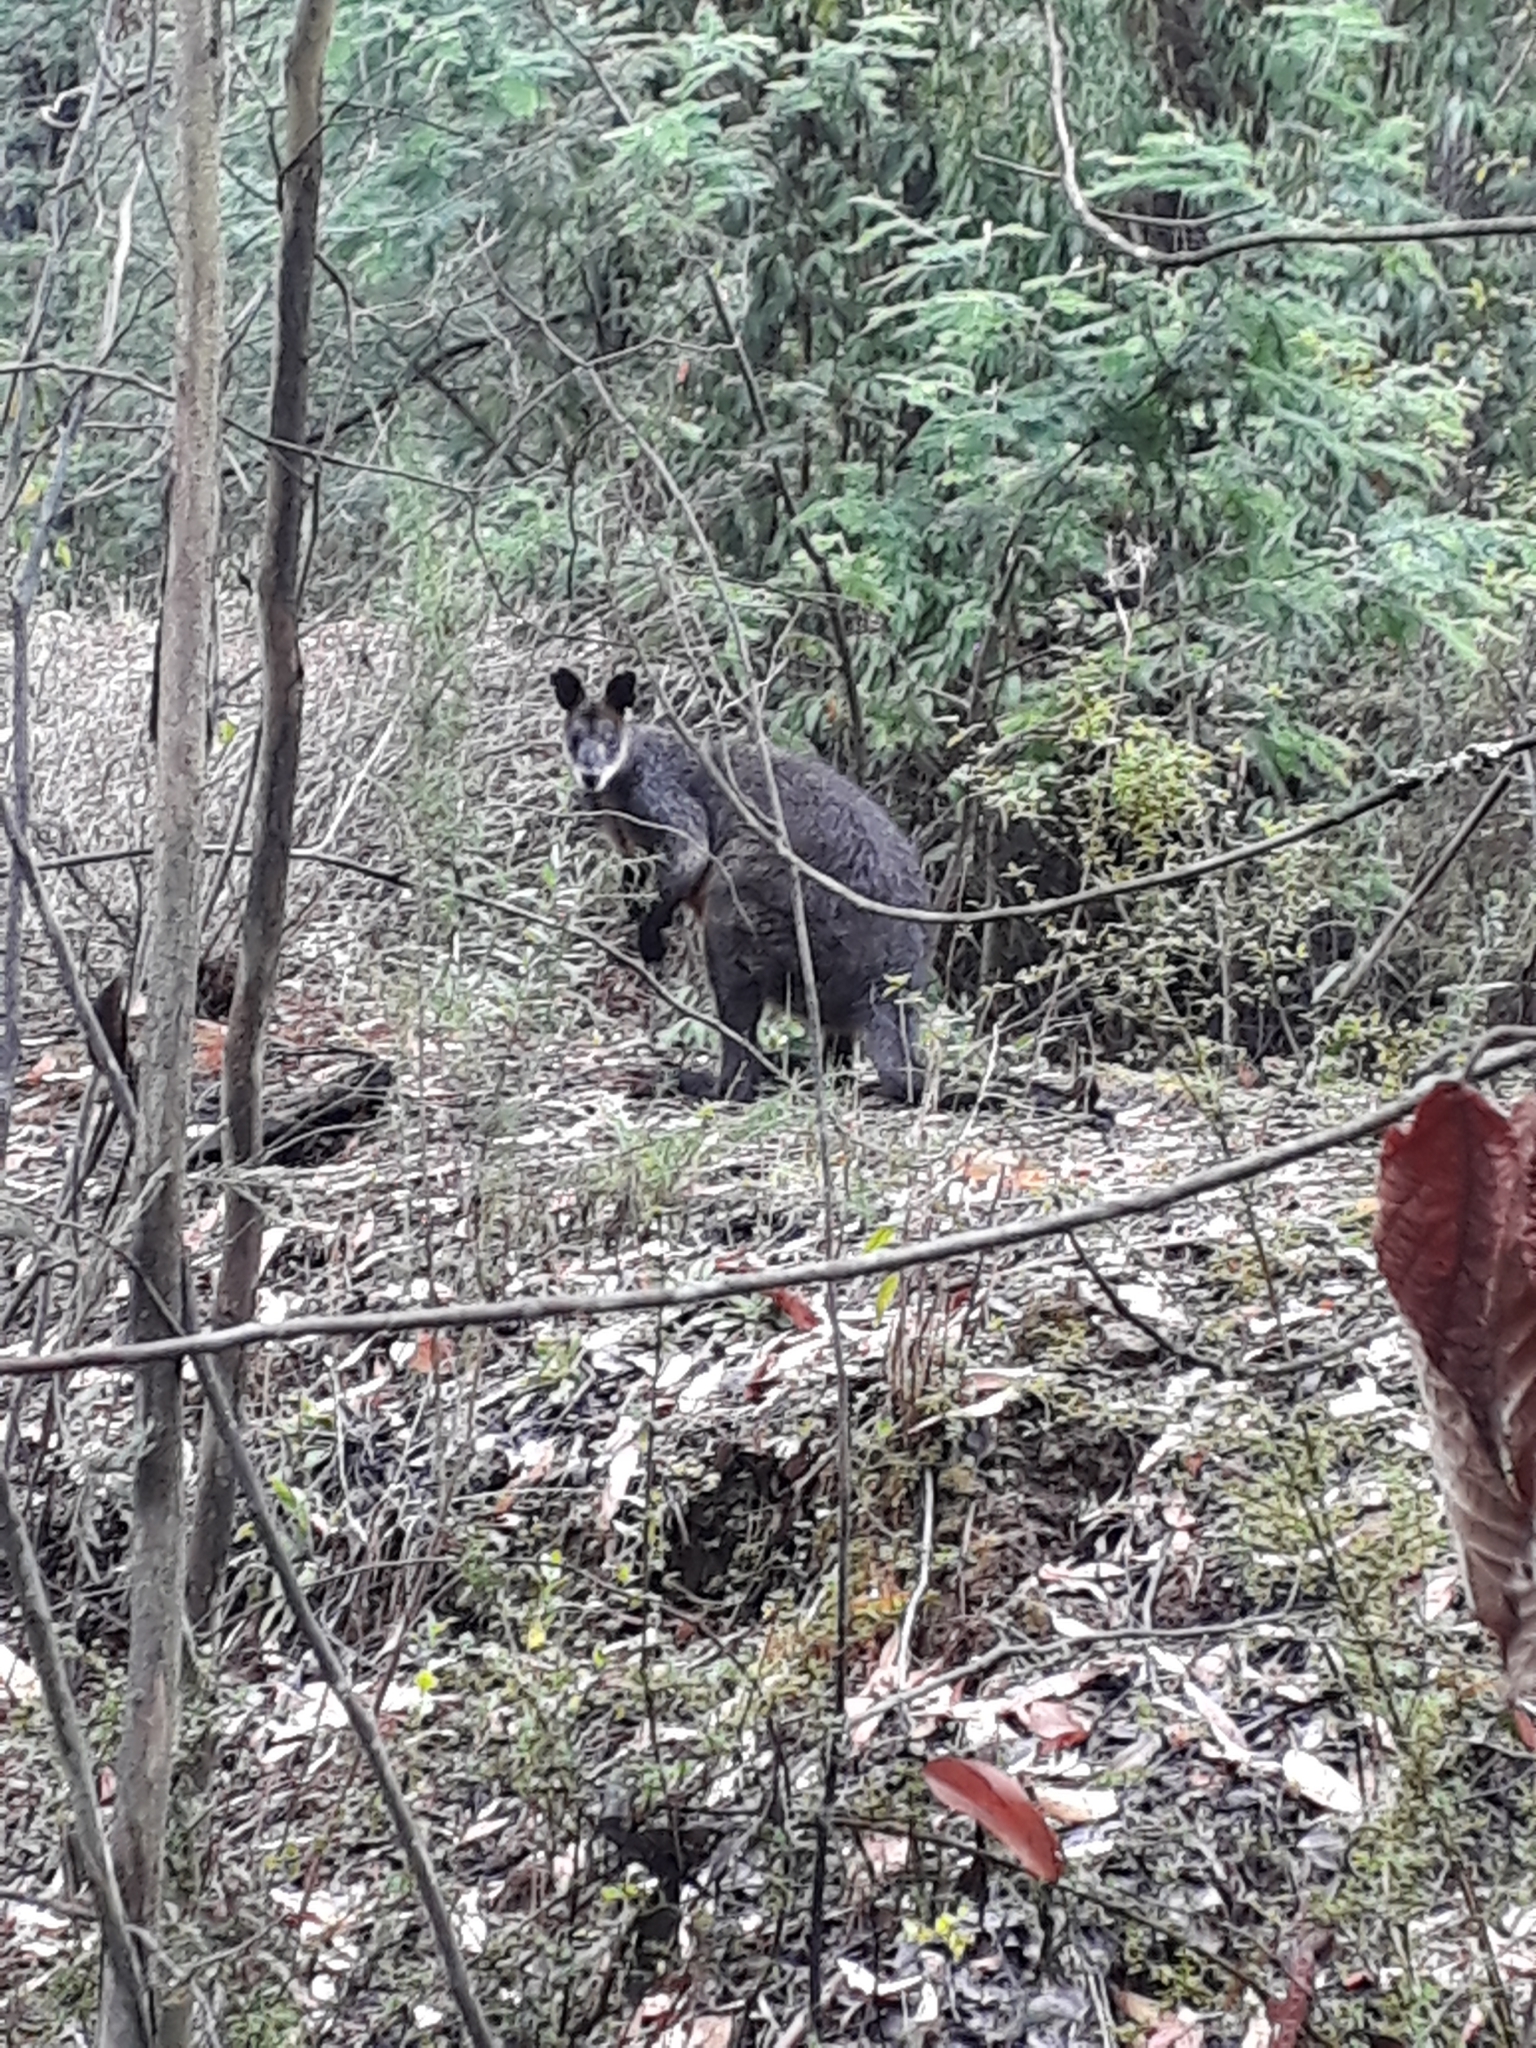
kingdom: Animalia
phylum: Chordata
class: Mammalia
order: Diprotodontia
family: Macropodidae
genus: Wallabia
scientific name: Wallabia bicolor
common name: Swamp wallaby
